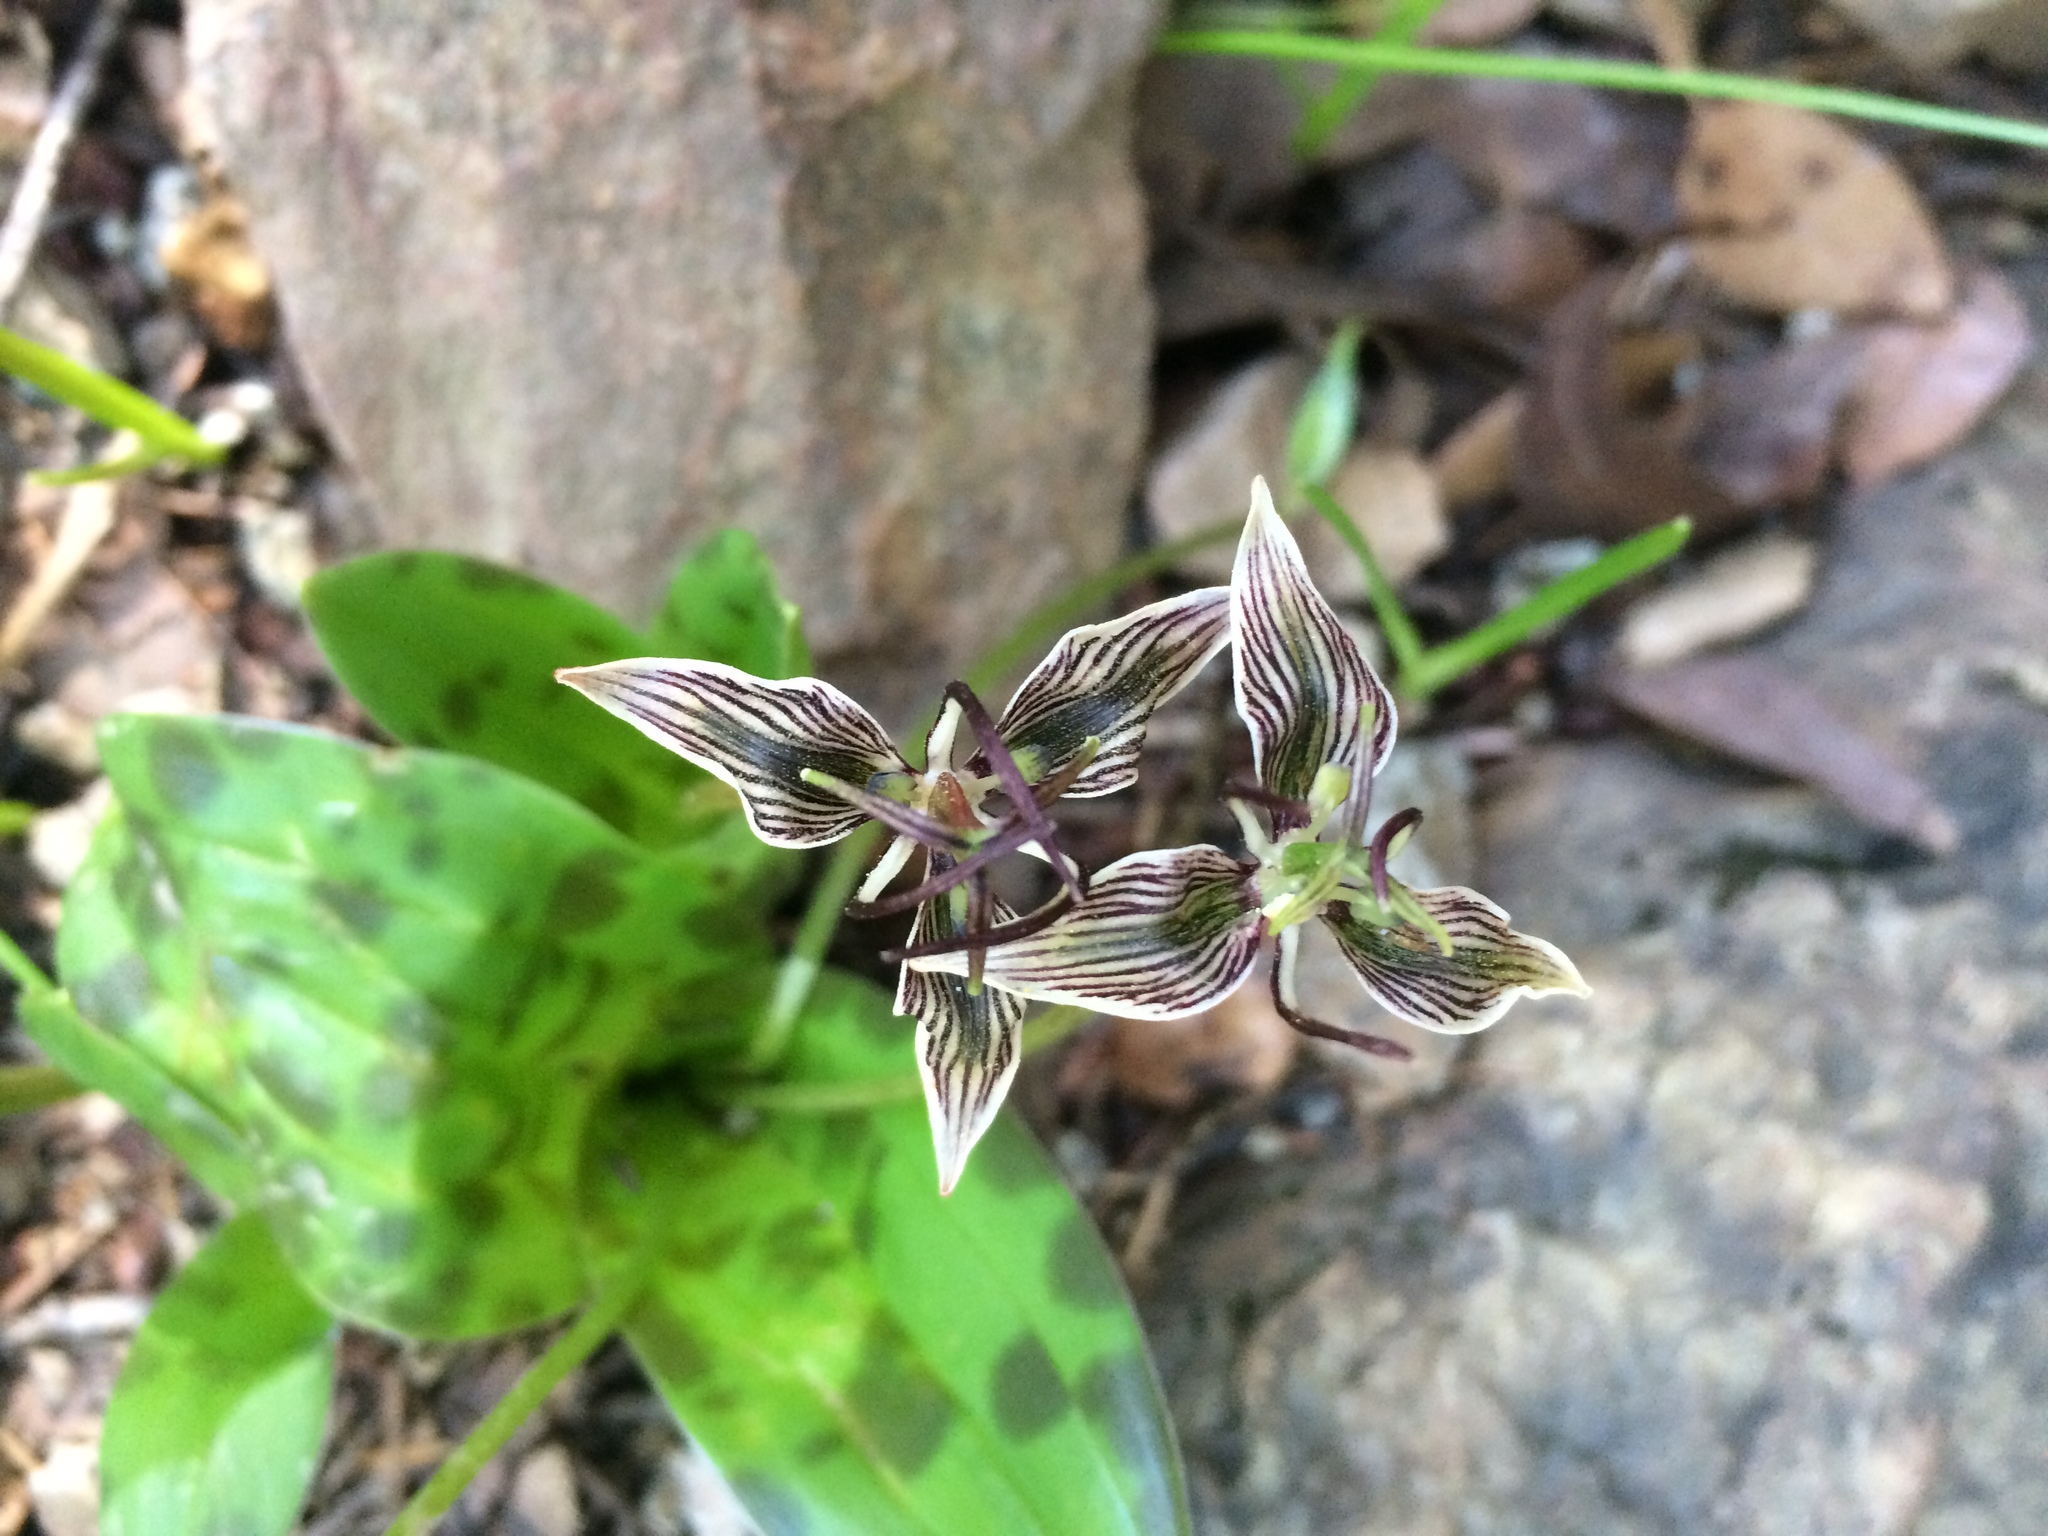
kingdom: Plantae
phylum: Tracheophyta
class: Liliopsida
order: Liliales
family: Liliaceae
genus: Scoliopus
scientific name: Scoliopus bigelovii
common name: Foetid adder's-tongue
